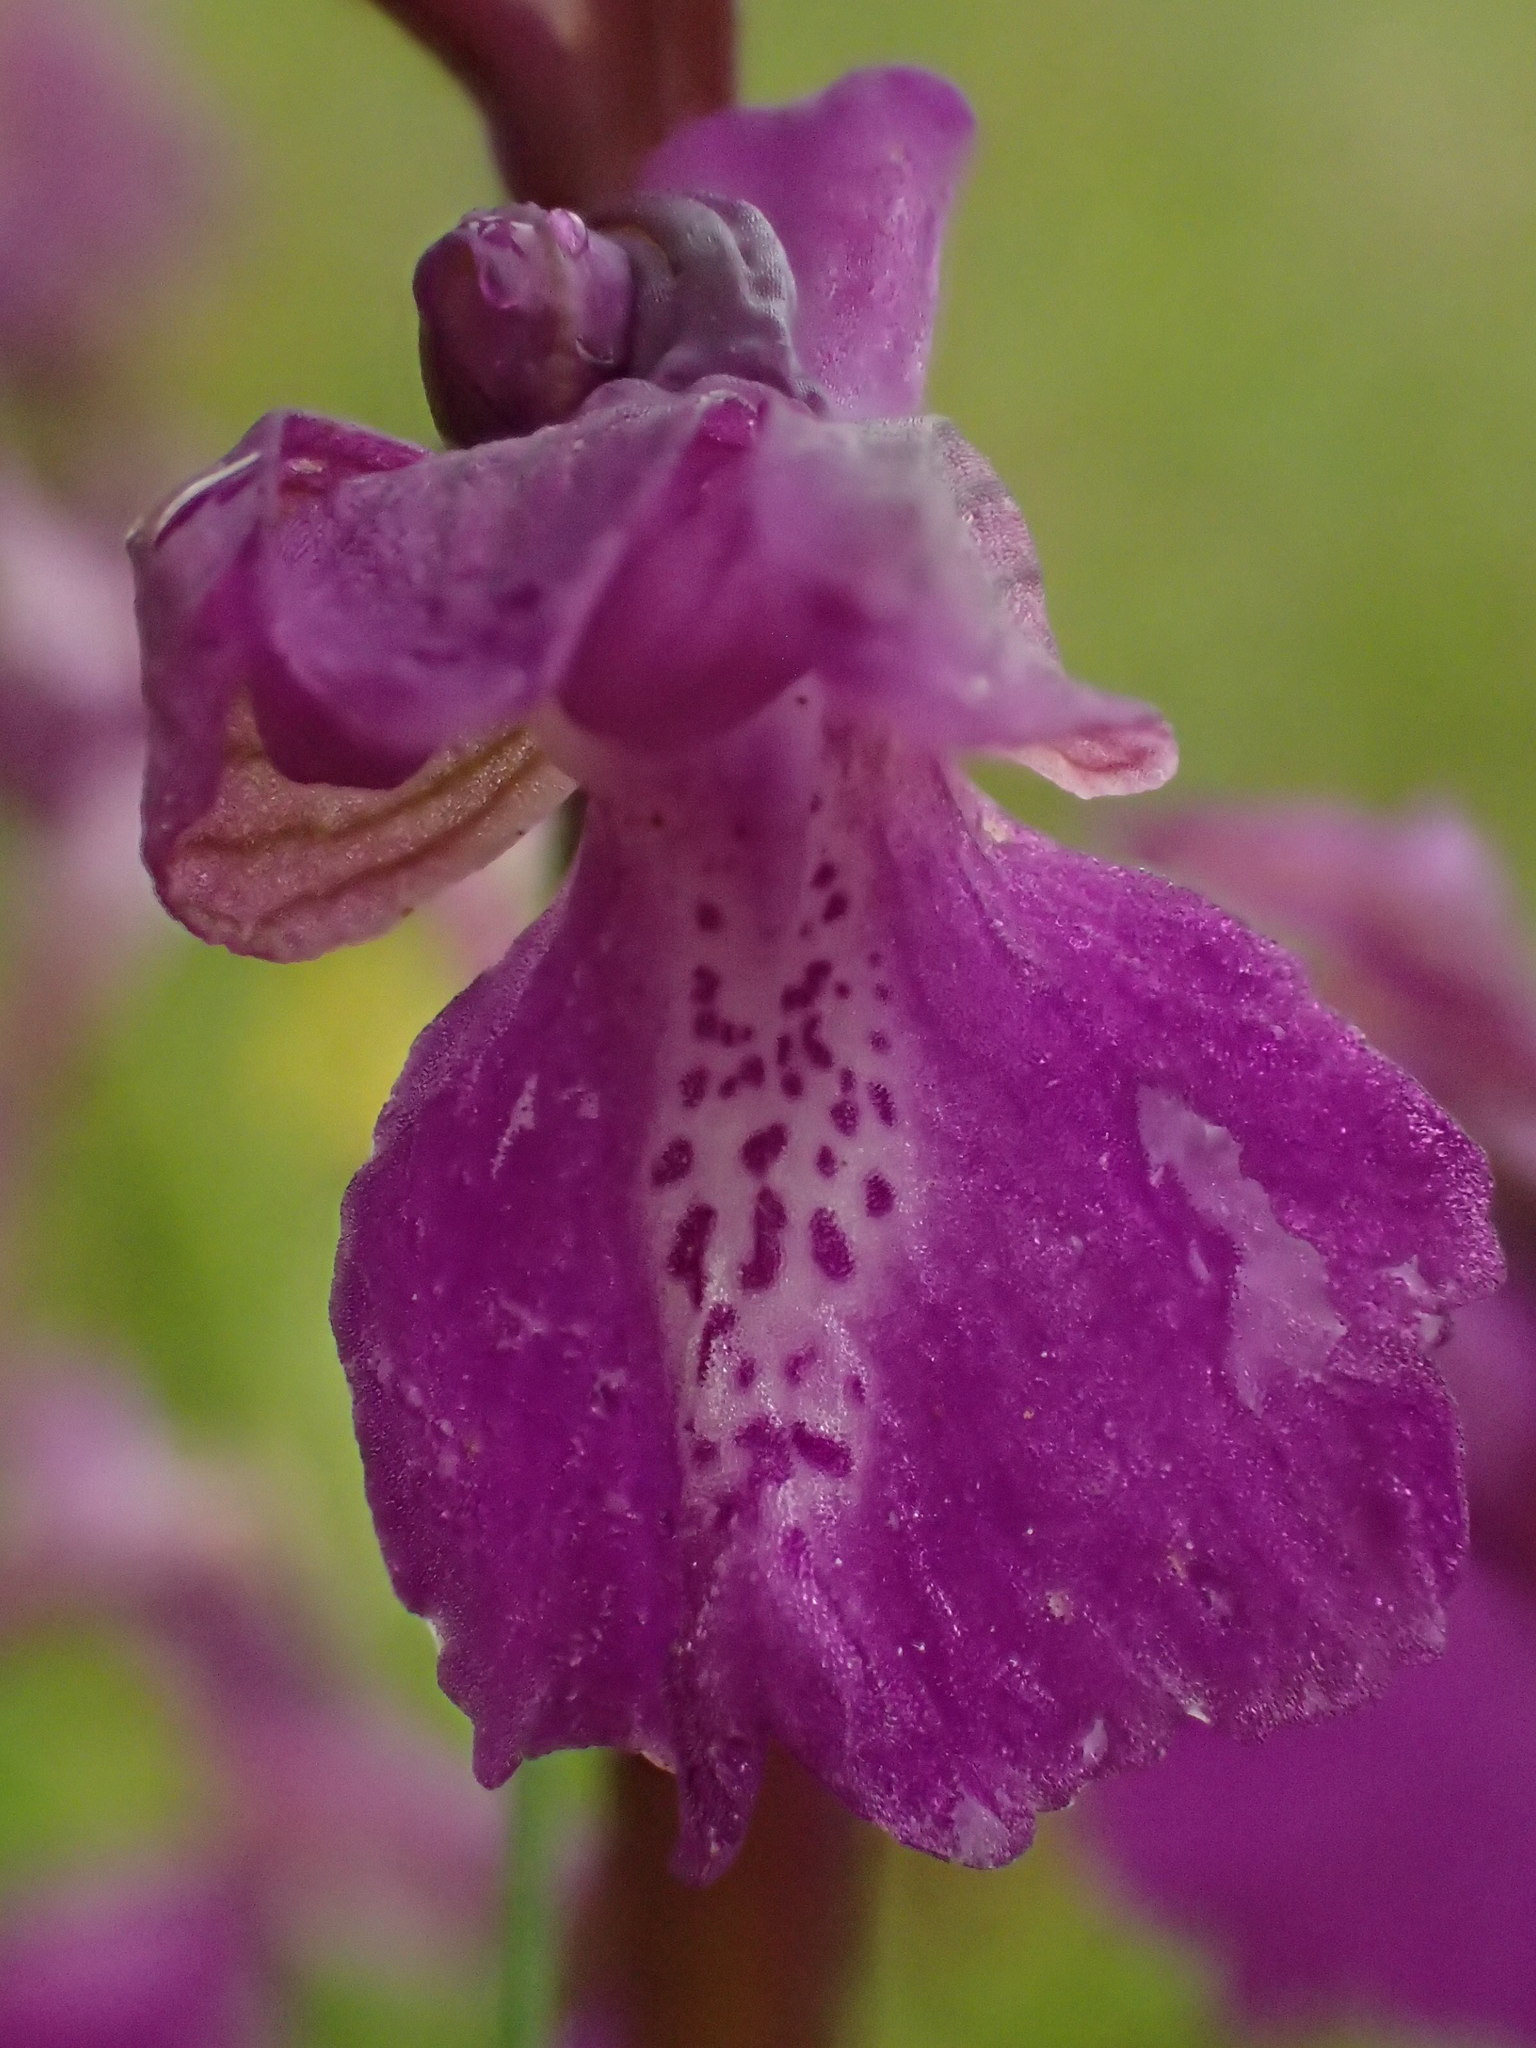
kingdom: Plantae
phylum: Tracheophyta
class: Liliopsida
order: Asparagales
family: Orchidaceae
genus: Anacamptis
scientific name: Anacamptis morio
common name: Green-winged orchid
